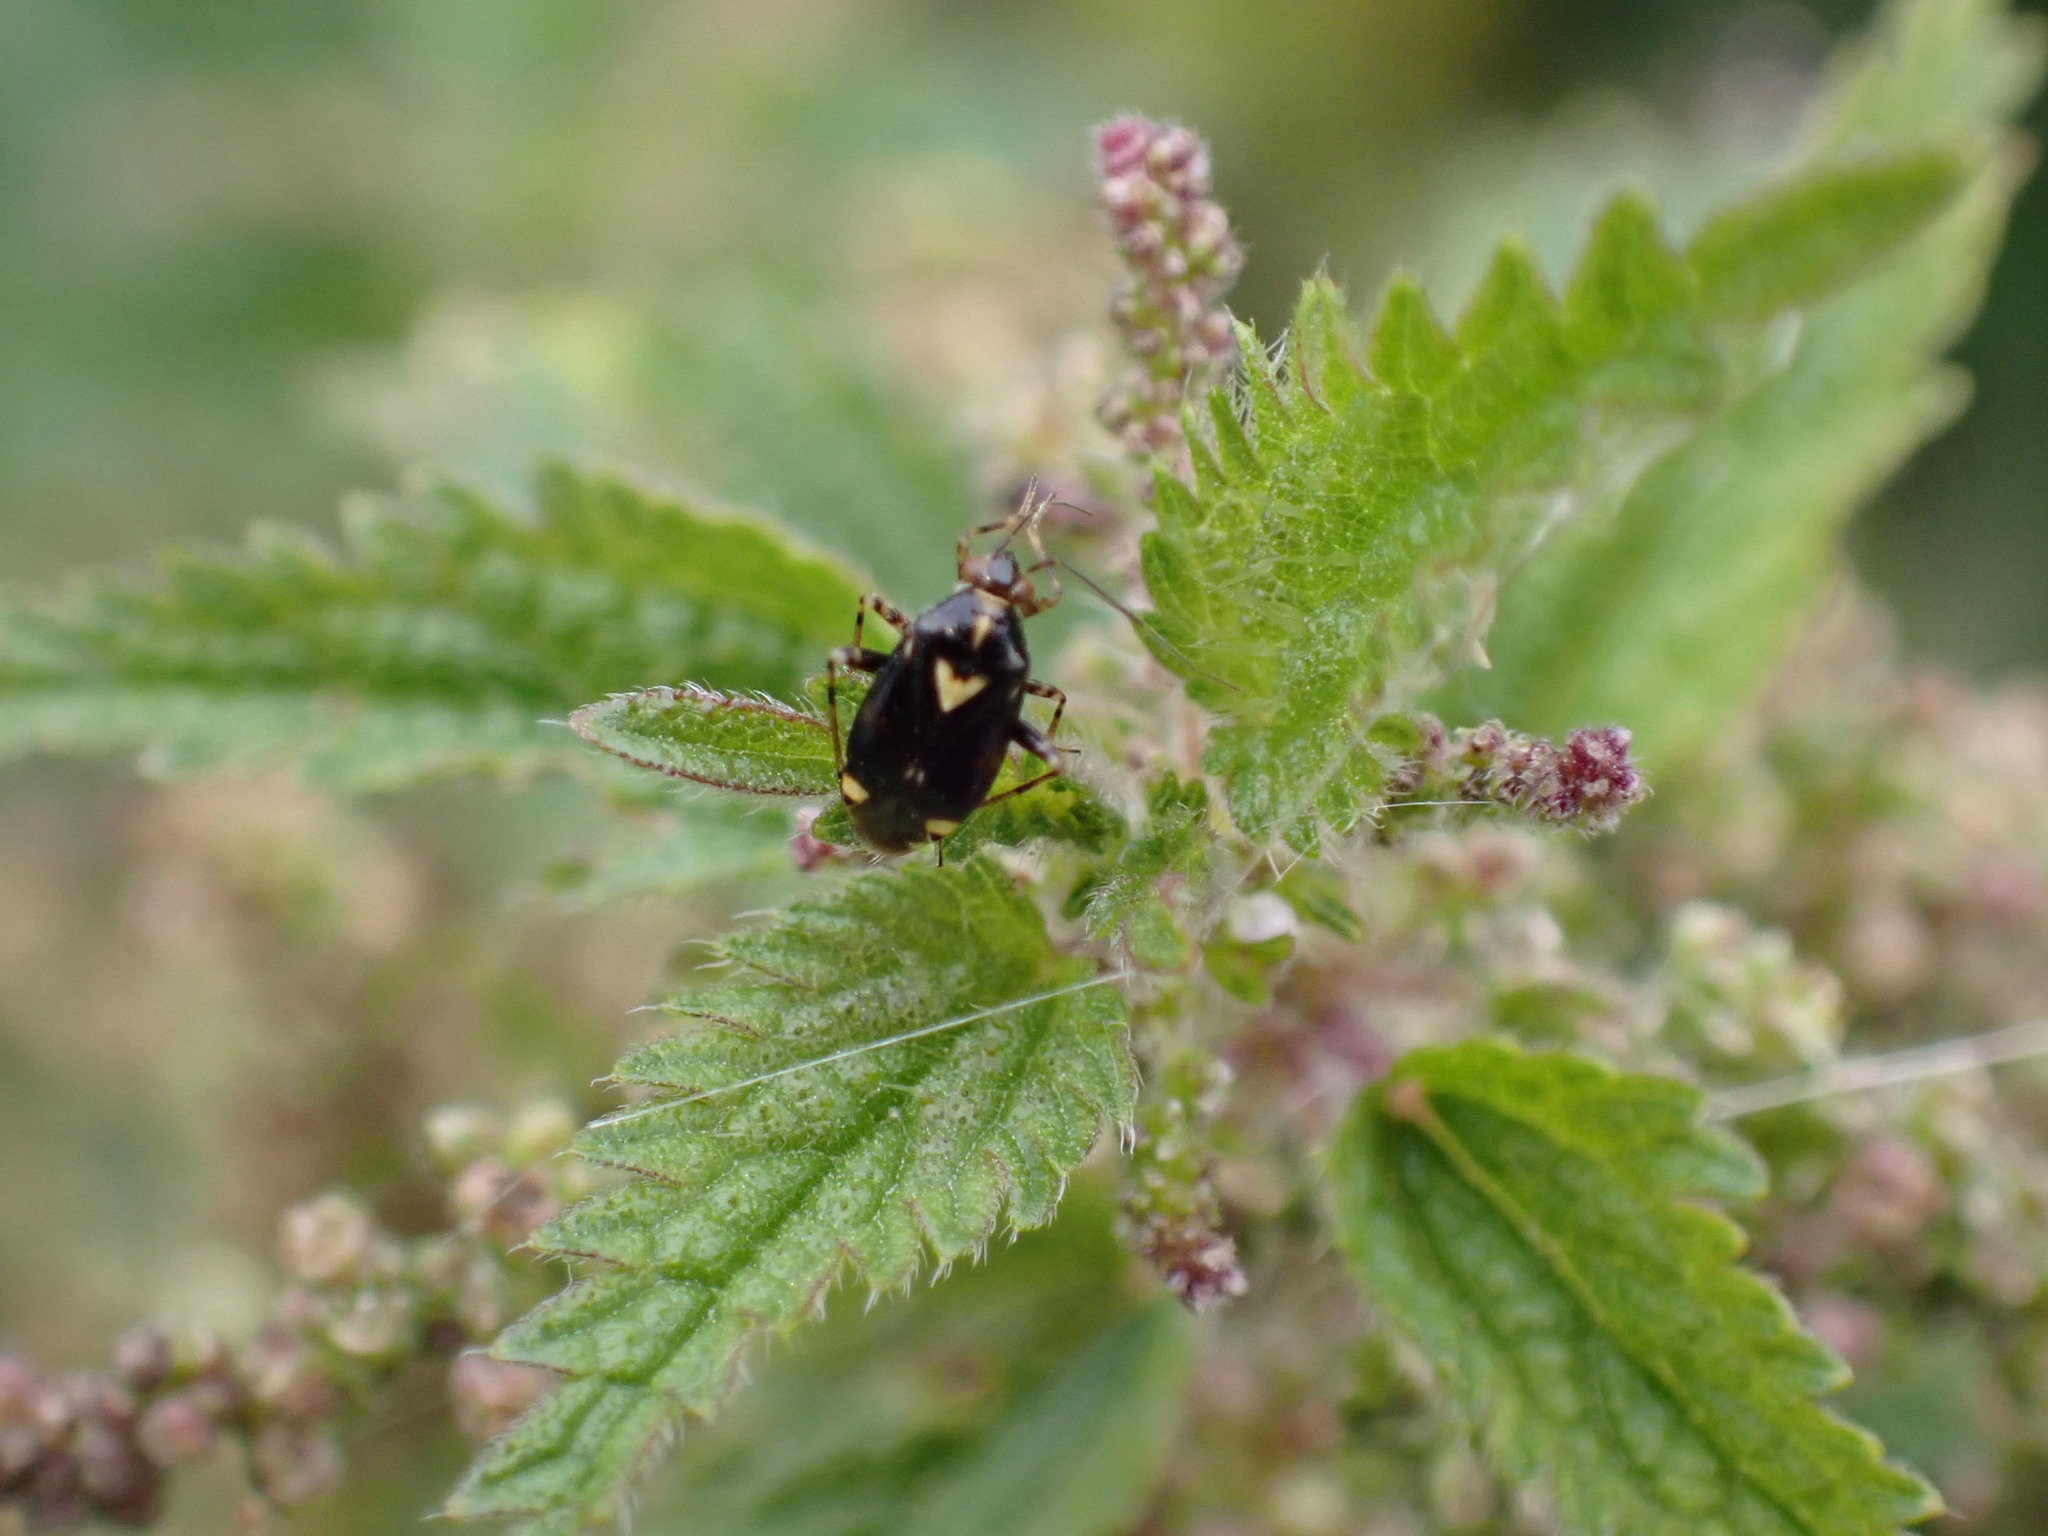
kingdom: Animalia
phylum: Arthropoda
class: Insecta
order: Hemiptera
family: Miridae
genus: Liocoris
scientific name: Liocoris tripustulatus
